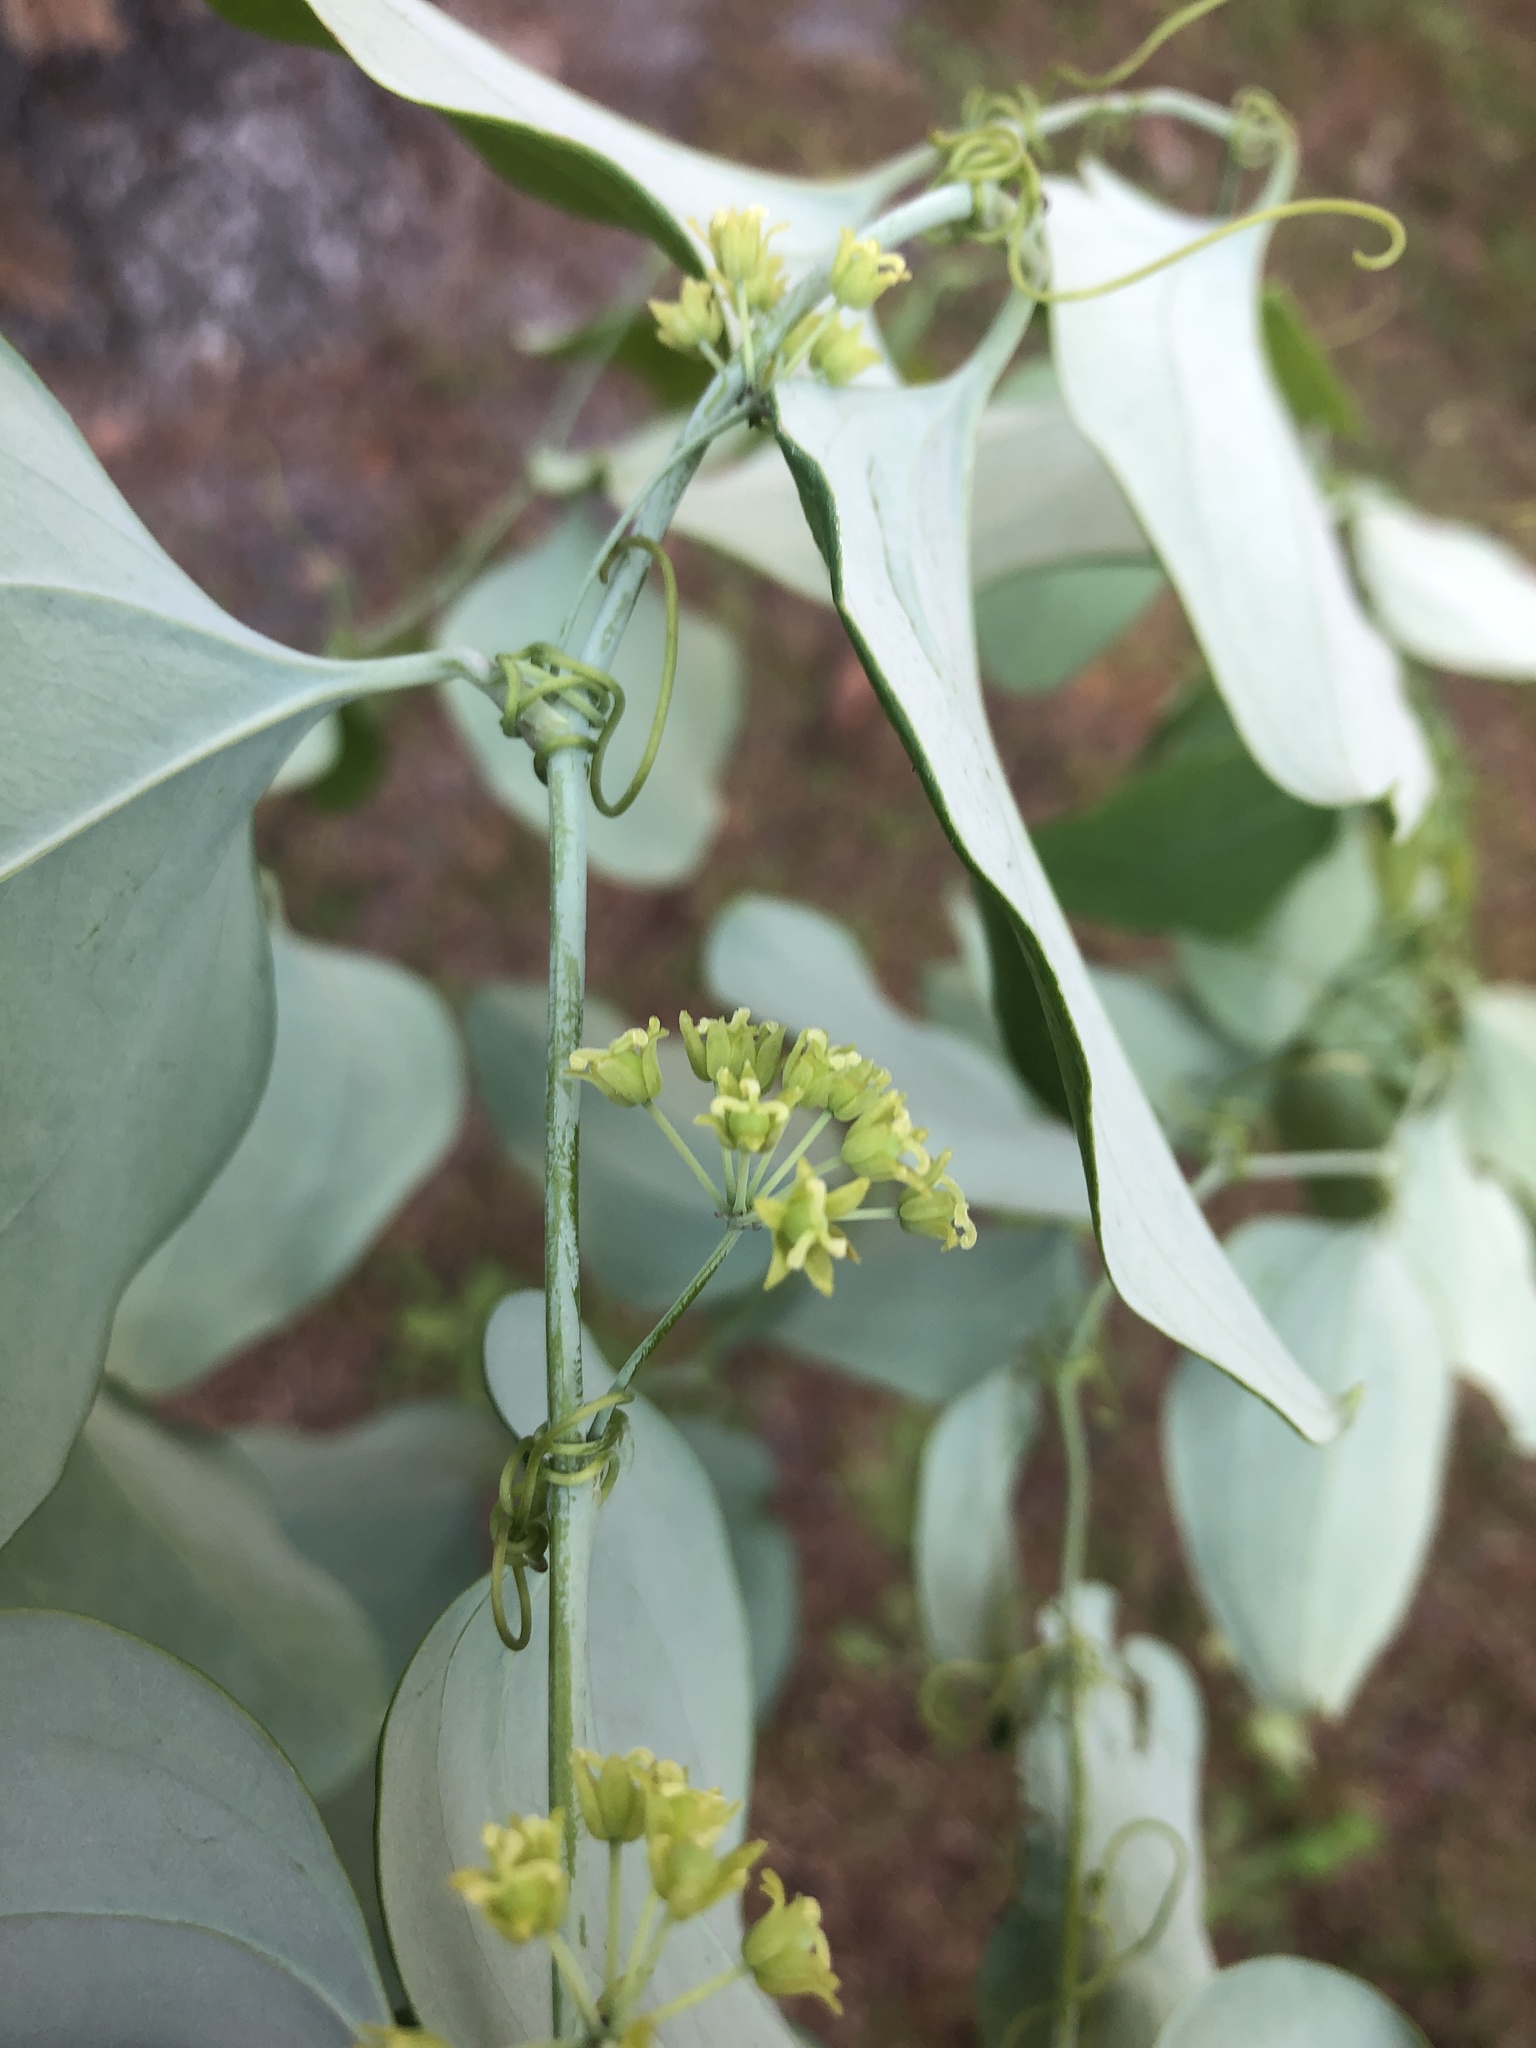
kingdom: Plantae
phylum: Tracheophyta
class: Liliopsida
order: Liliales
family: Smilacaceae
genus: Smilax
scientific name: Smilax glauca
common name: Cat greenbrier
